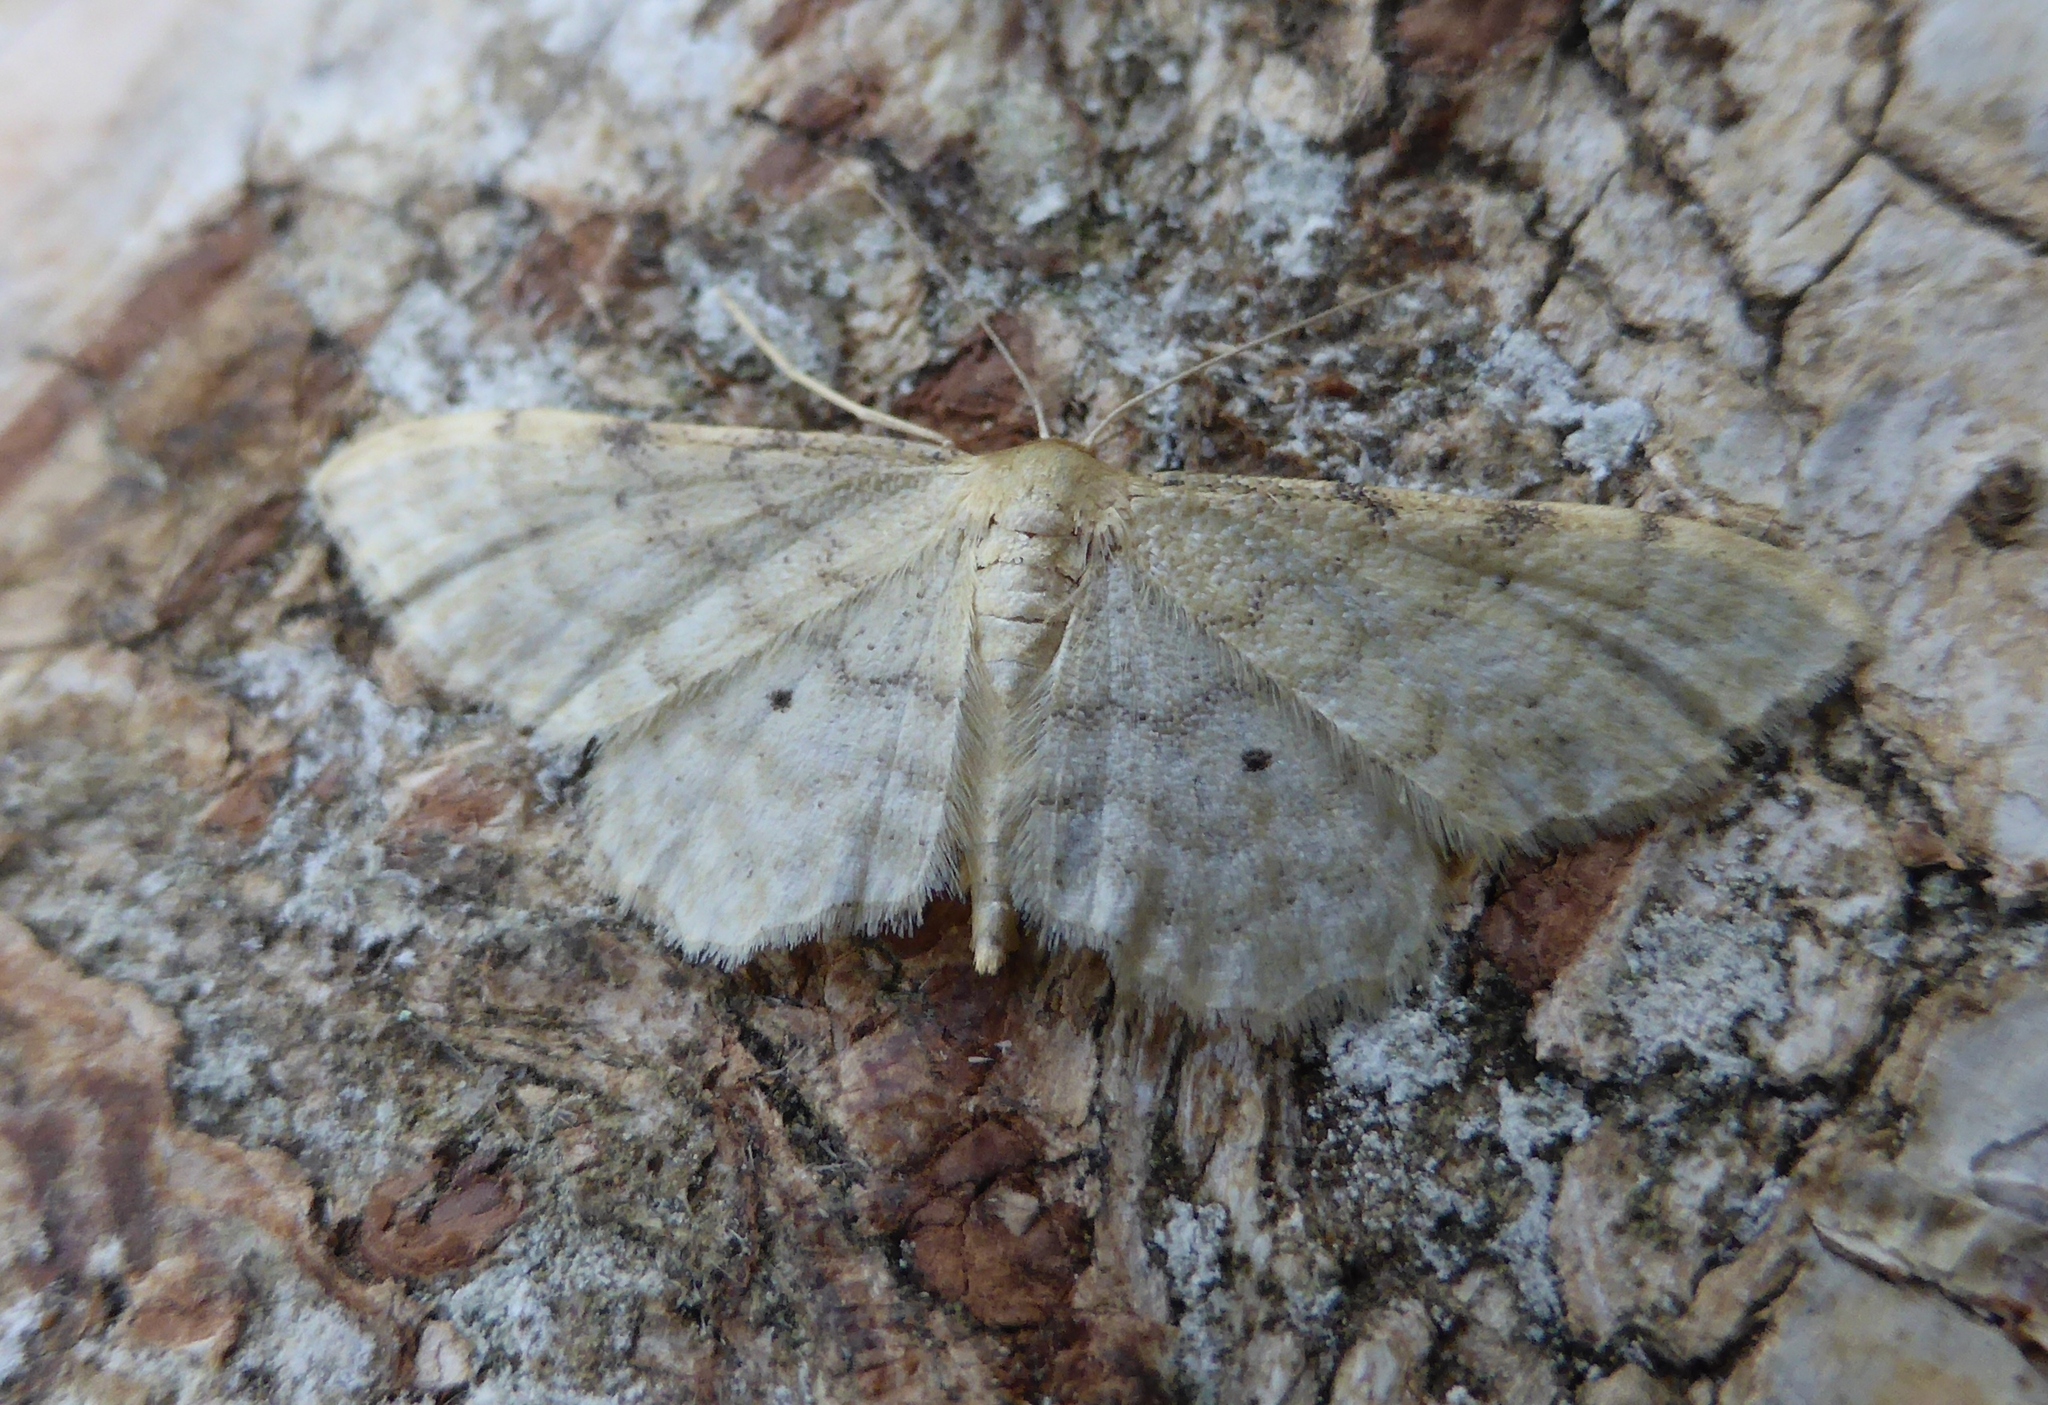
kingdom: Animalia
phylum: Arthropoda
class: Insecta
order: Lepidoptera
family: Geometridae
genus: Idaea
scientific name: Idaea fuscovenosa
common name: Dwarf cream wave
